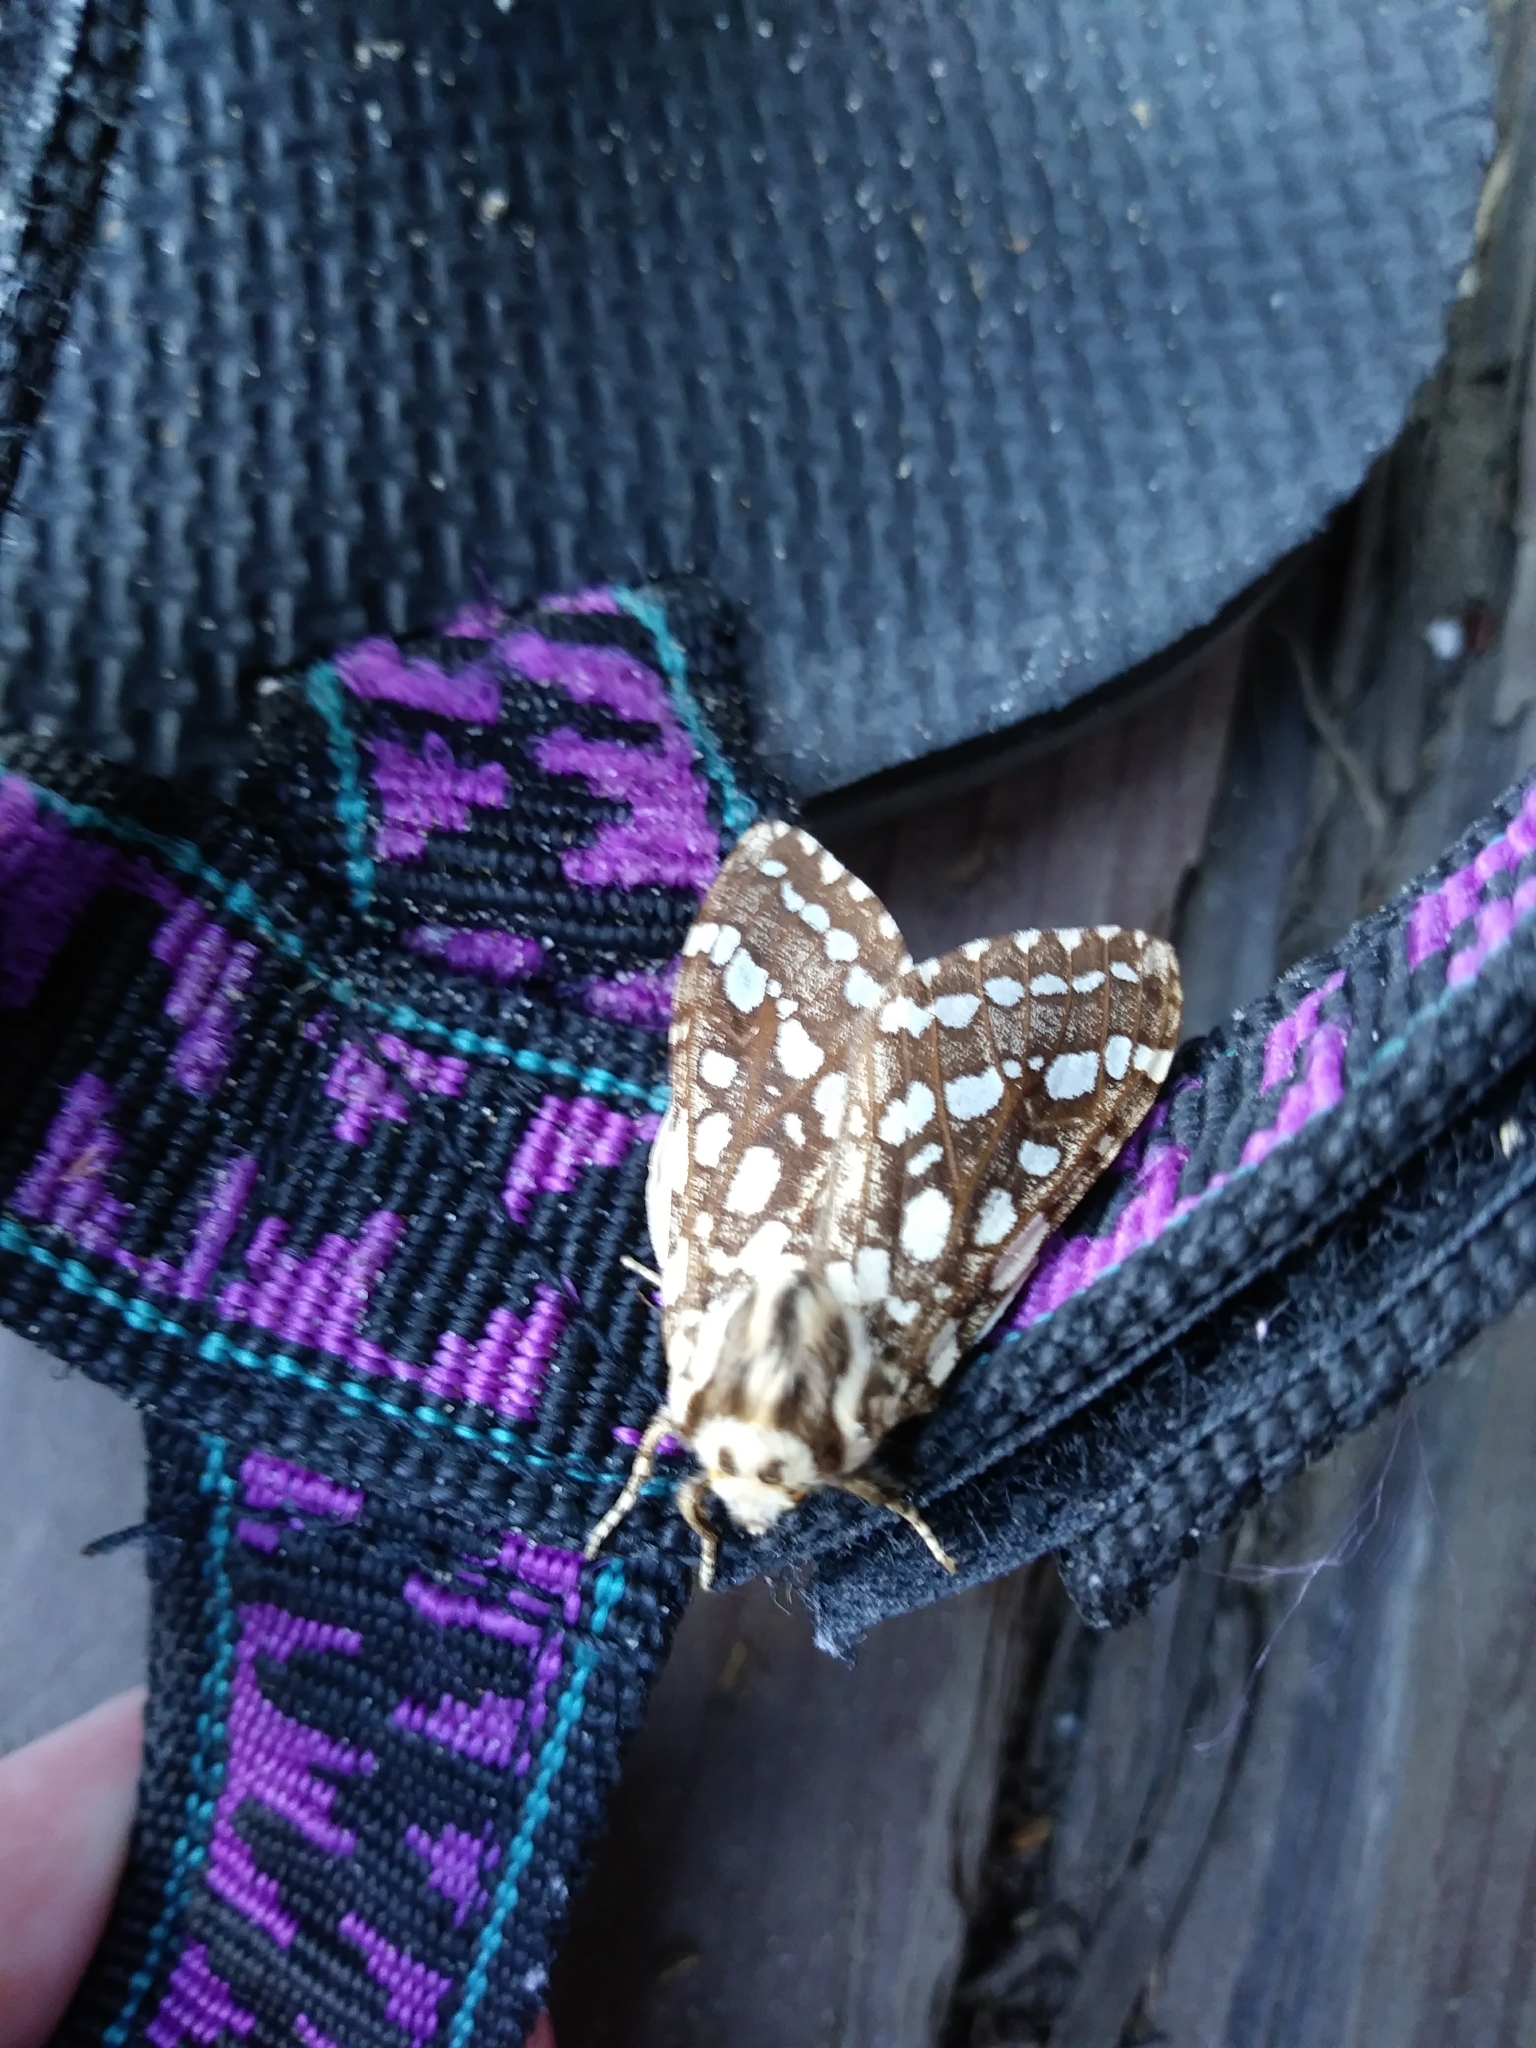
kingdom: Animalia
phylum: Arthropoda
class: Insecta
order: Lepidoptera
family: Erebidae
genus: Lophocampa
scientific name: Lophocampa argentata
